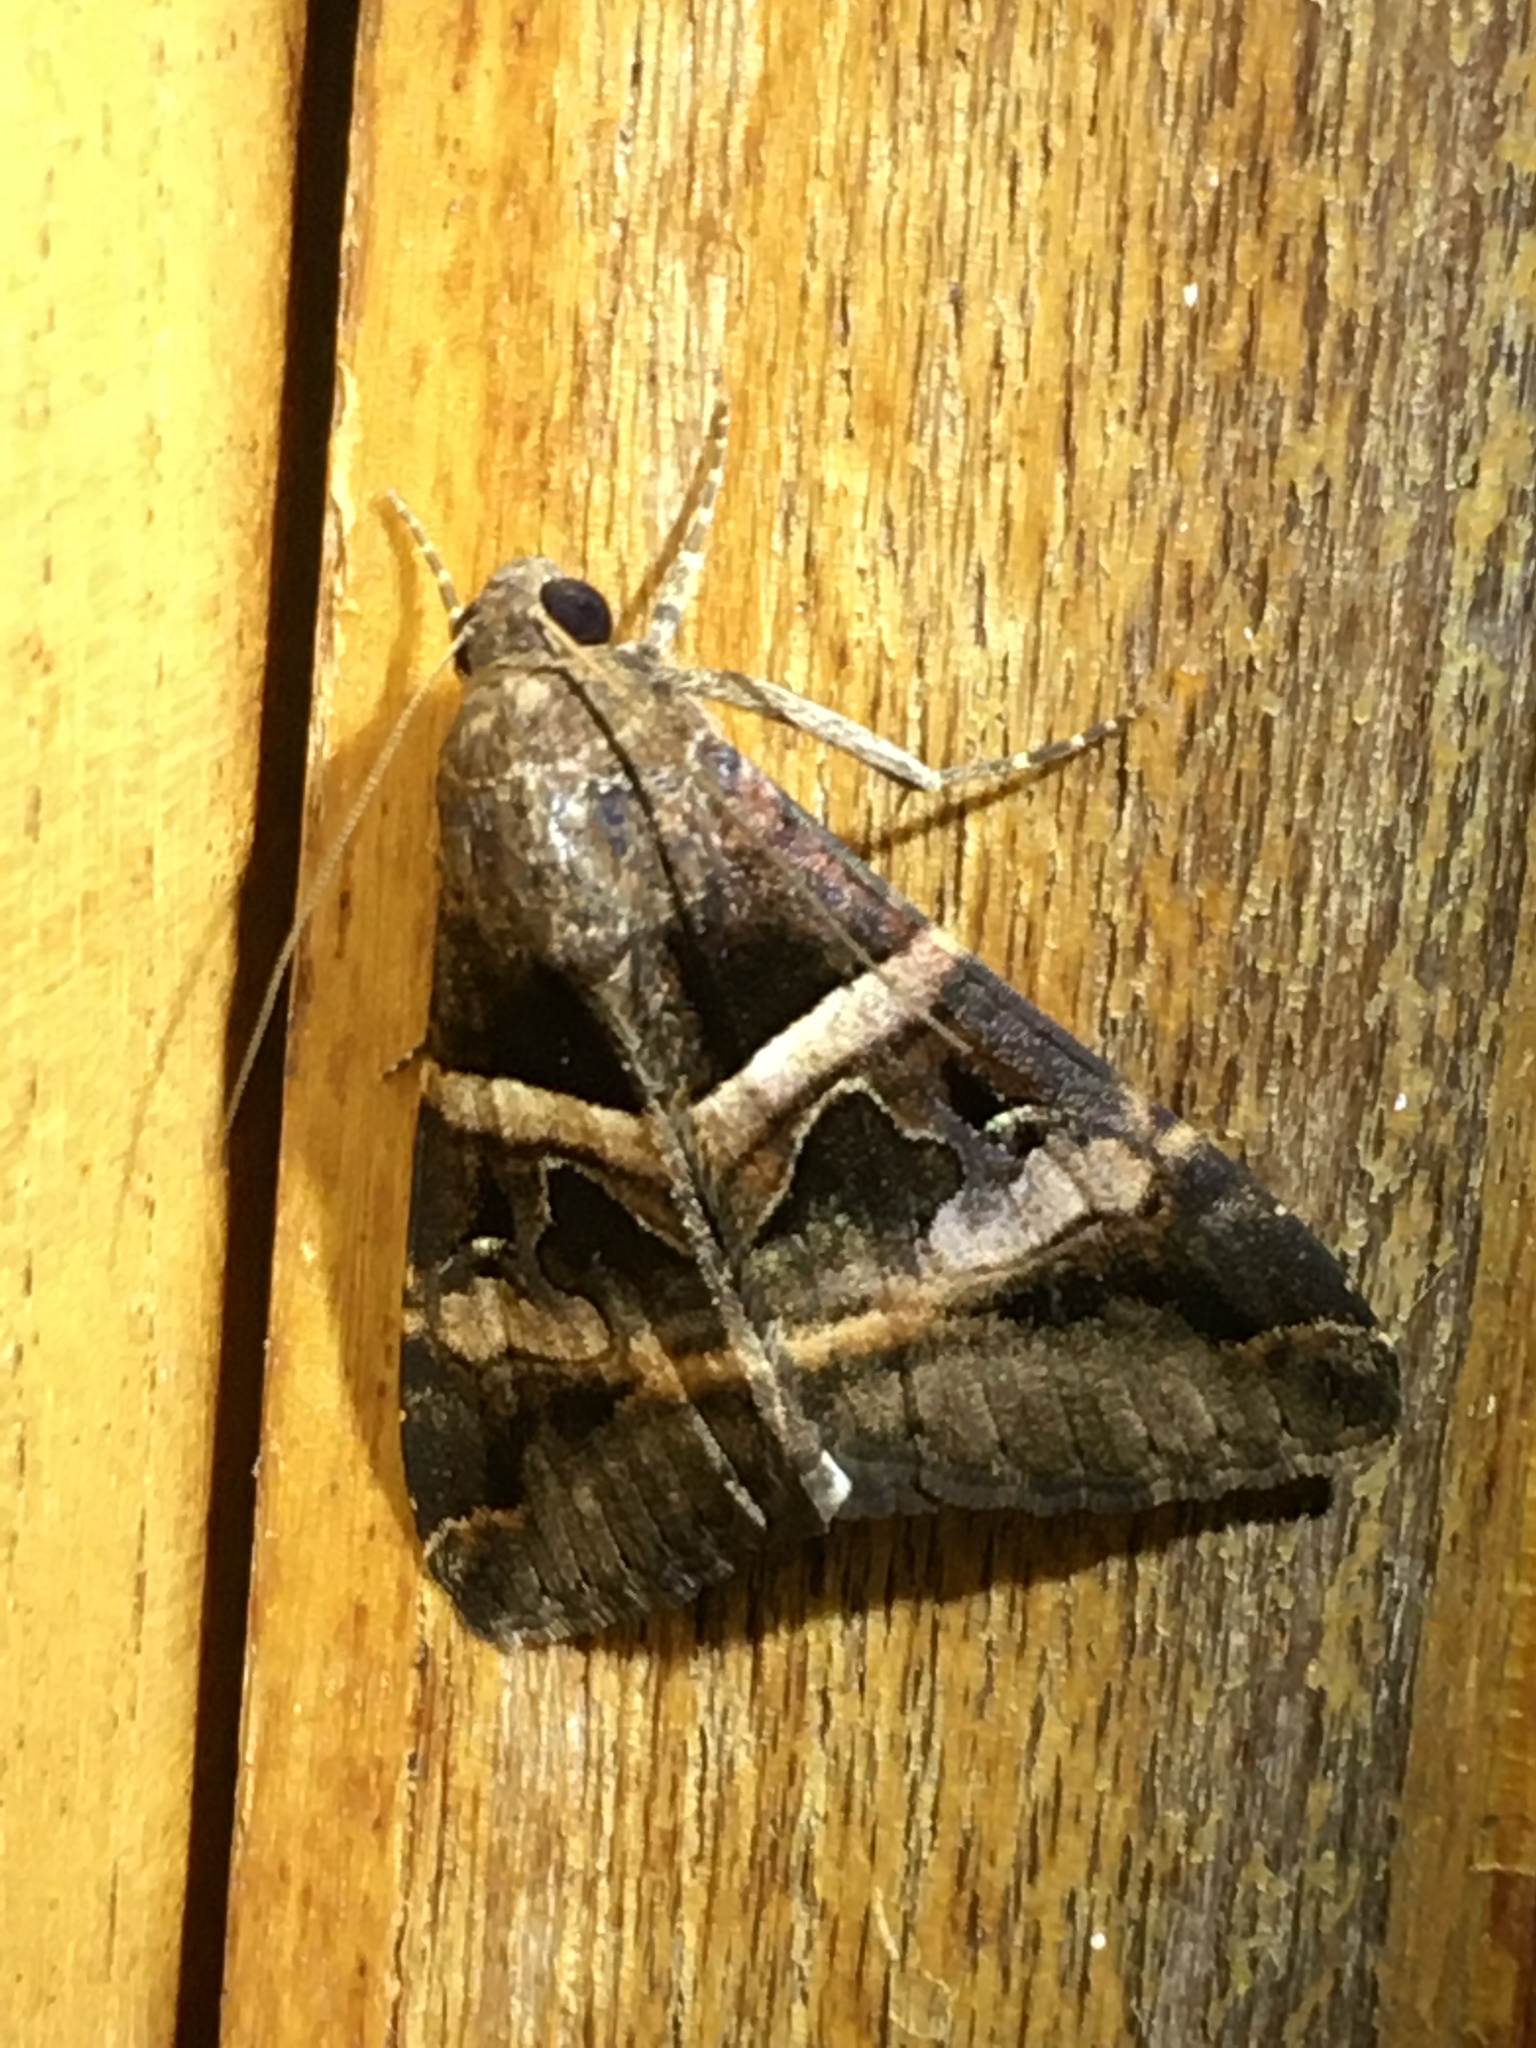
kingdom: Animalia
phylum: Arthropoda
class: Insecta
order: Lepidoptera
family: Erebidae
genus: Melipotis
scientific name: Melipotis perpendicularis
